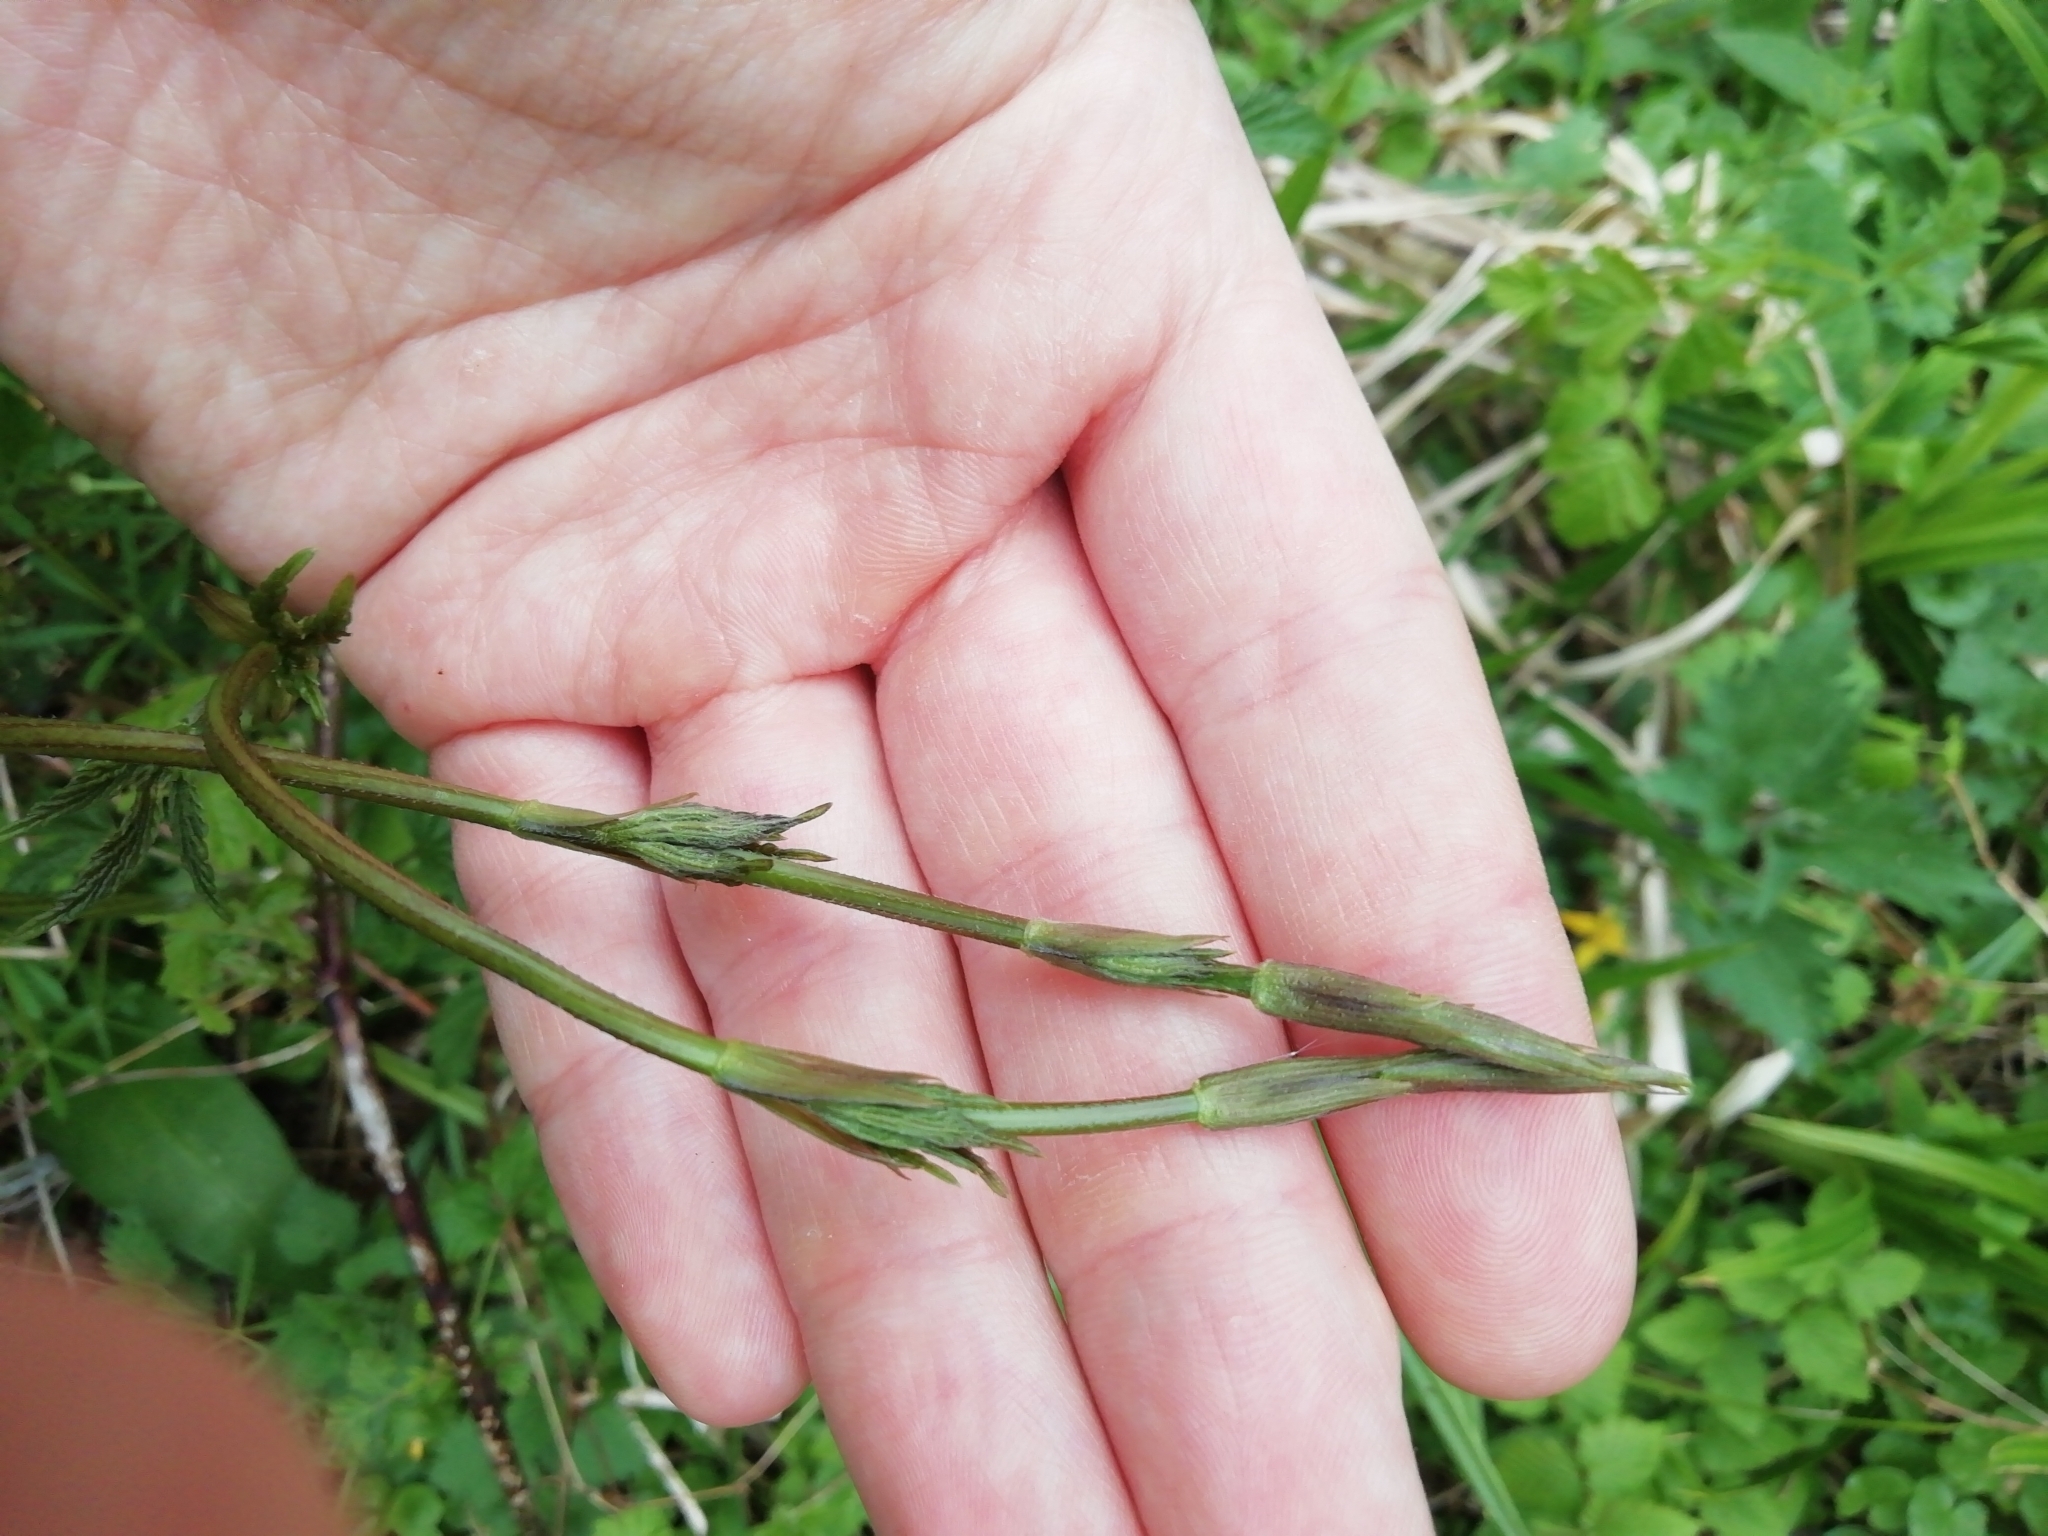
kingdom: Plantae
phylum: Tracheophyta
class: Magnoliopsida
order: Rosales
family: Cannabaceae
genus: Humulus
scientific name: Humulus lupulus
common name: Hop
